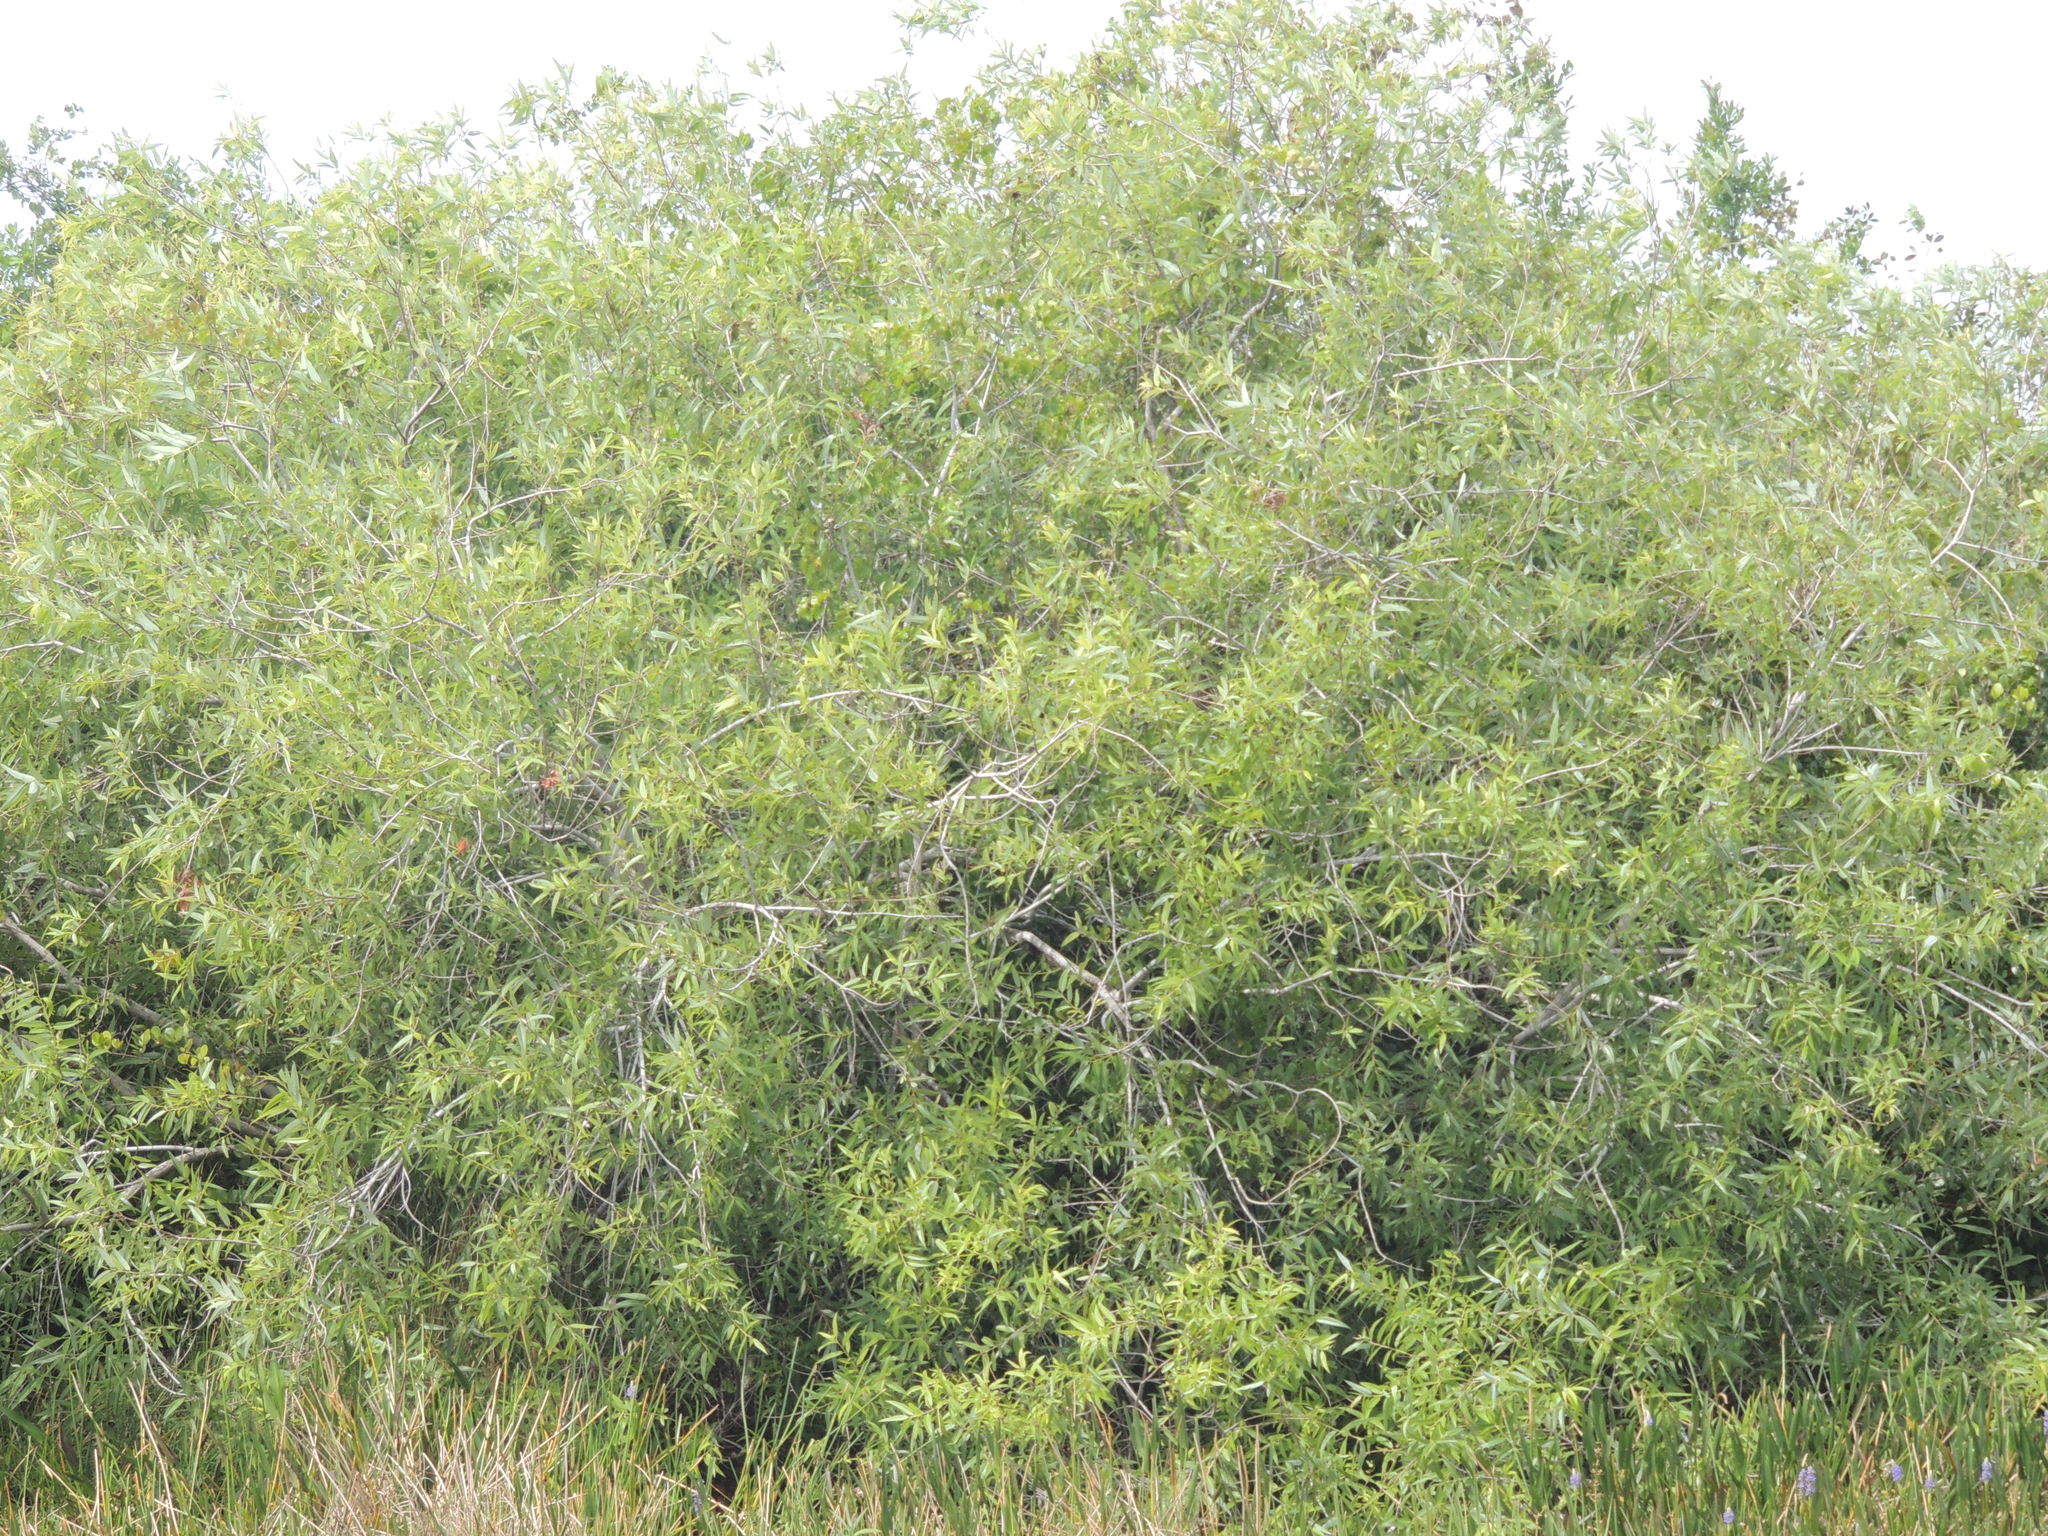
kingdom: Plantae
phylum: Tracheophyta
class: Magnoliopsida
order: Malpighiales
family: Salicaceae
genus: Salix
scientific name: Salix caroliniana
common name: Carolina willow
